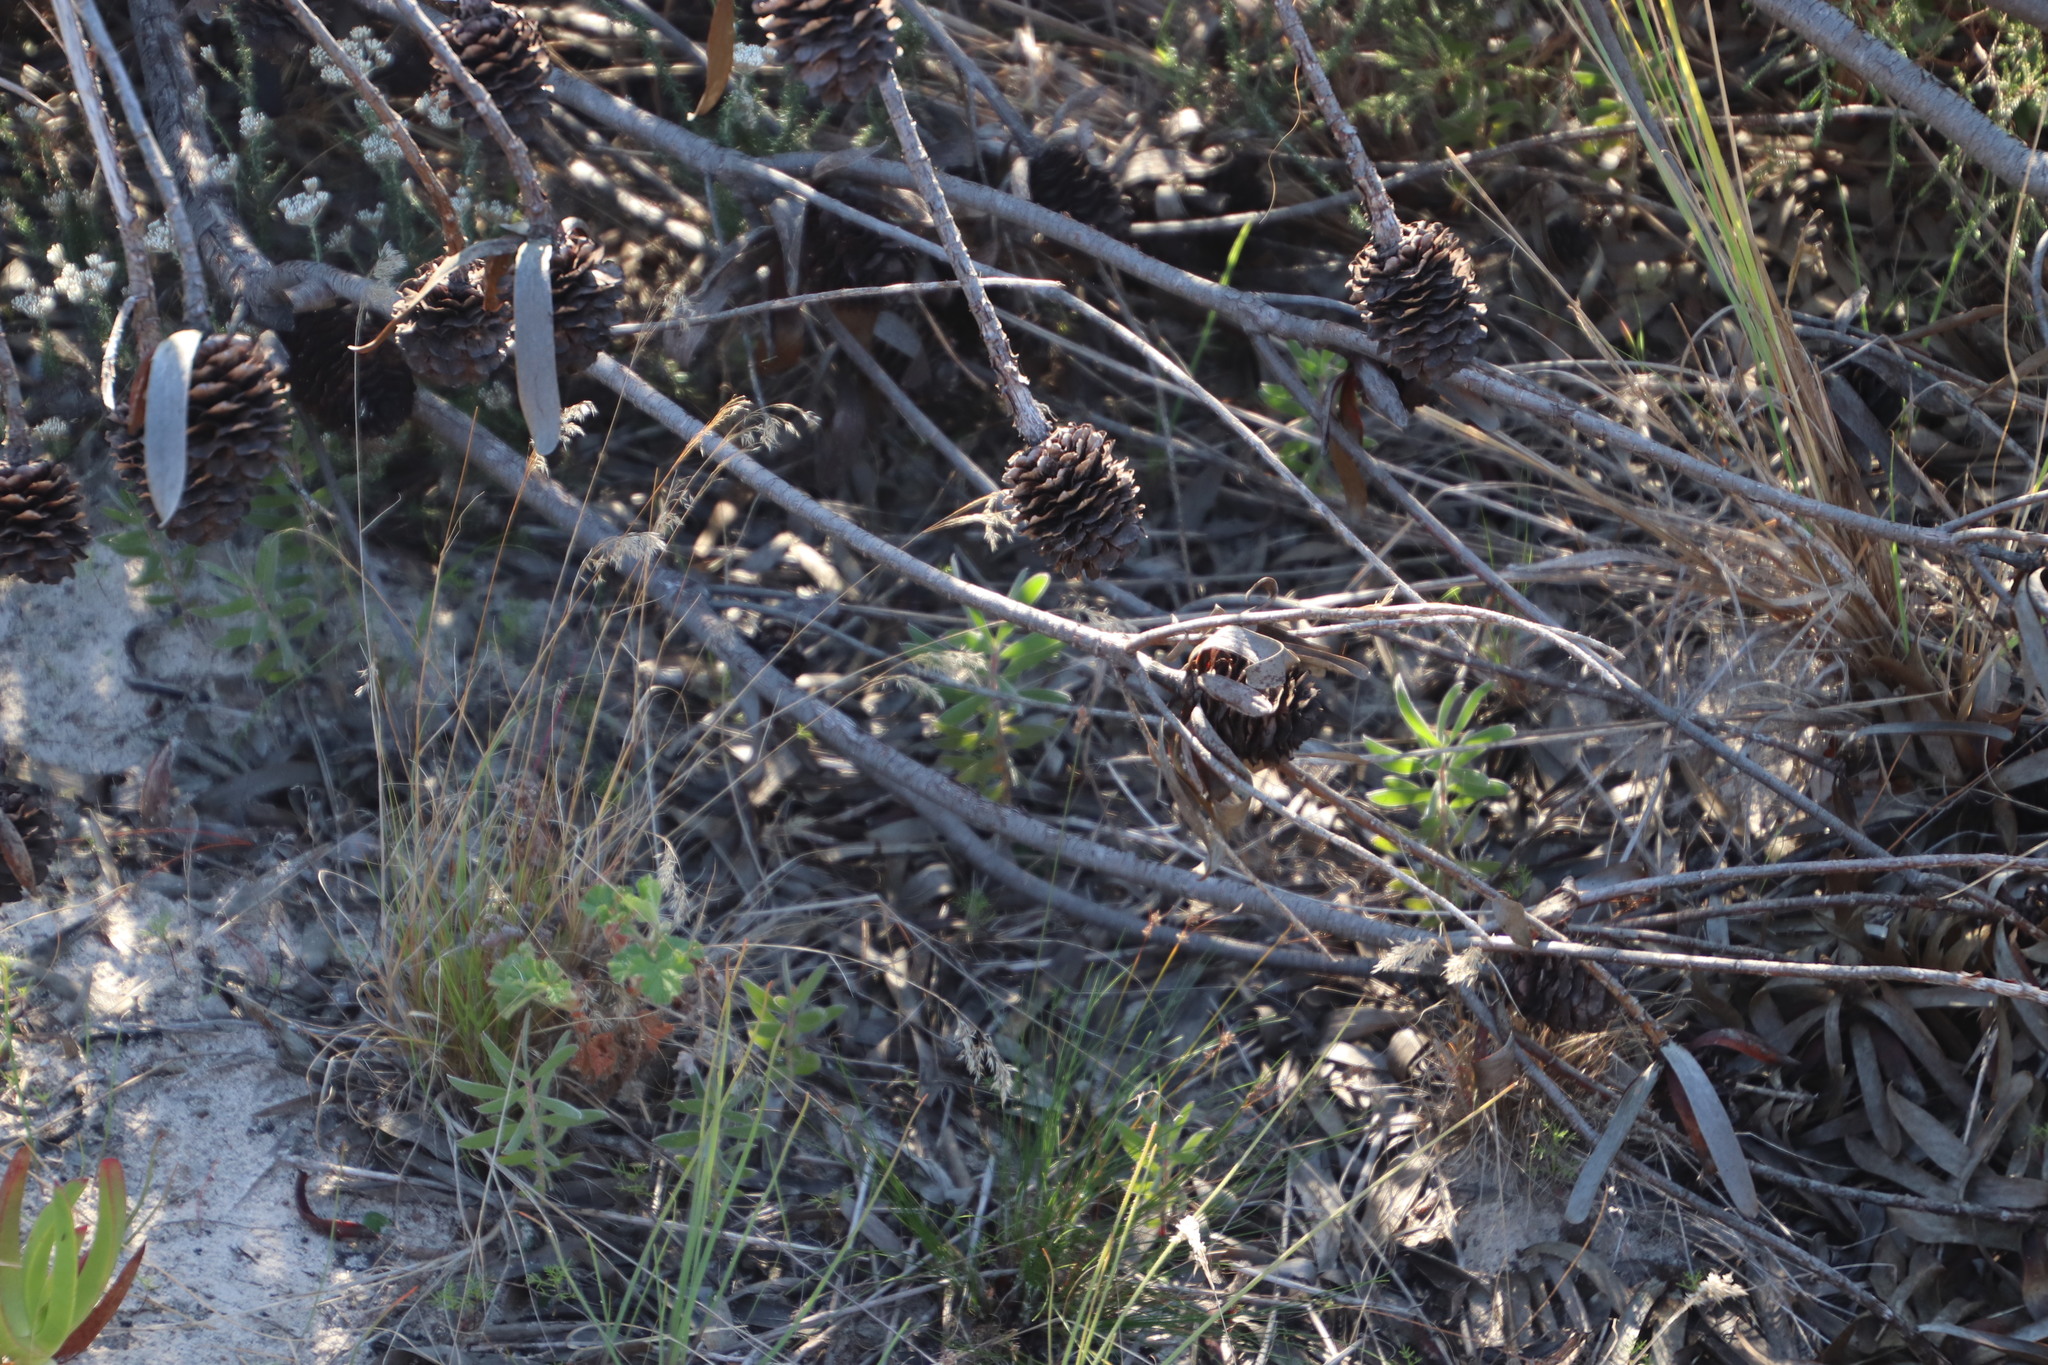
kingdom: Plantae
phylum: Tracheophyta
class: Magnoliopsida
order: Proteales
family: Proteaceae
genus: Leucadendron
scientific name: Leucadendron laureolum
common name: Golden sunshinebush
